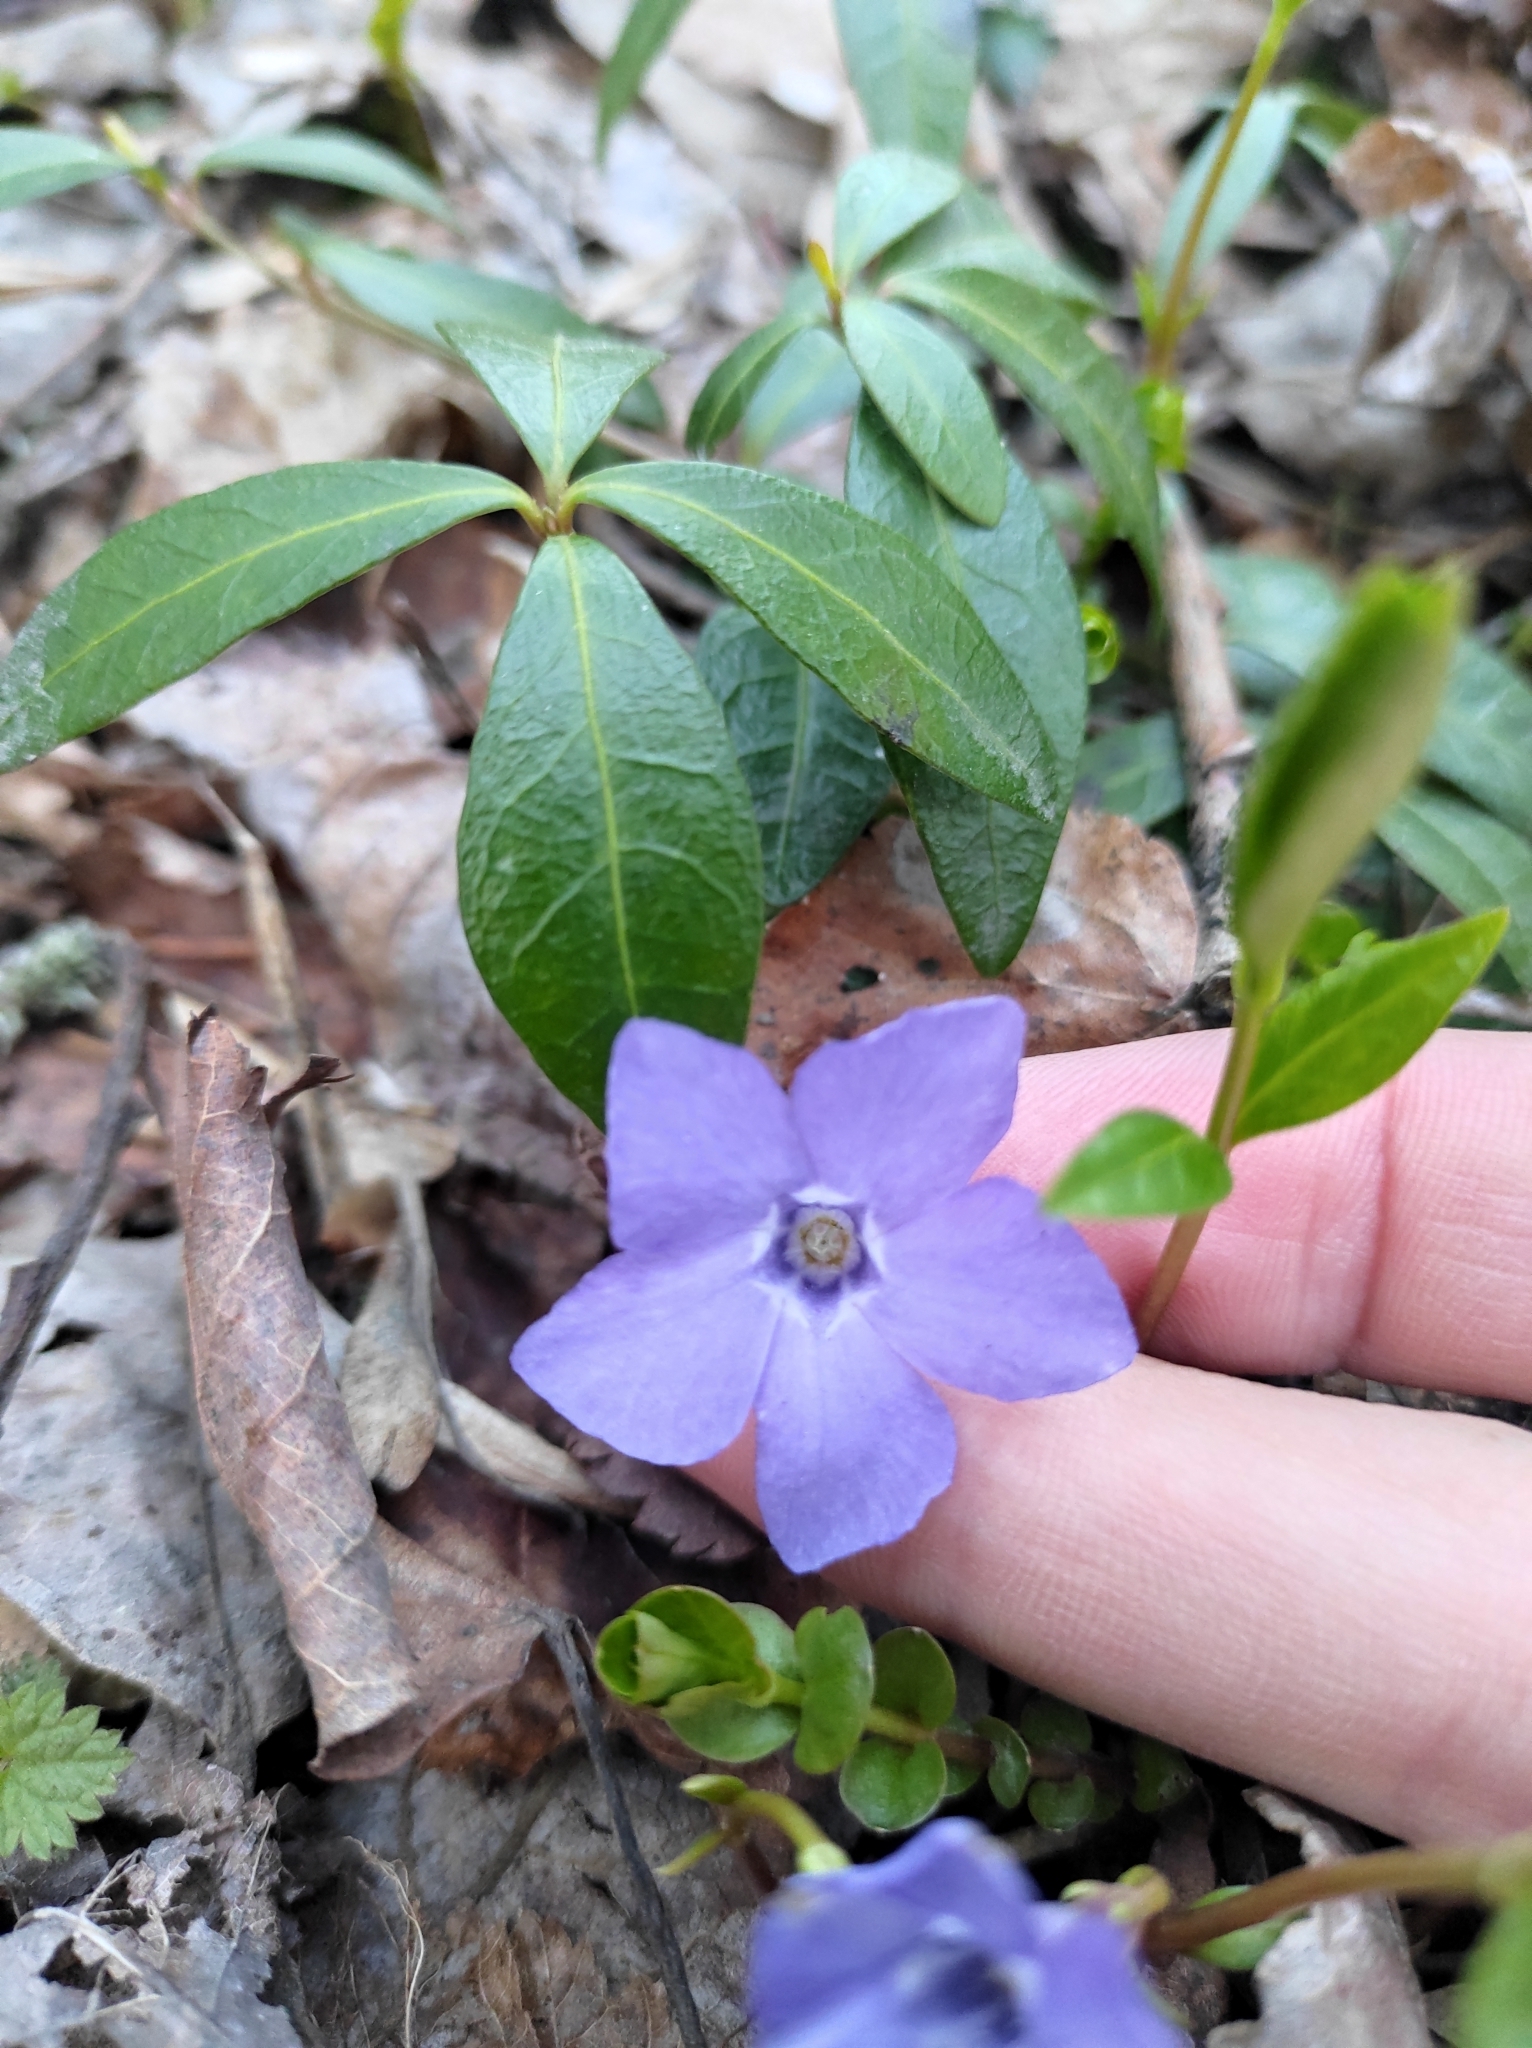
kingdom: Plantae
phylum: Tracheophyta
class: Magnoliopsida
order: Gentianales
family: Apocynaceae
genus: Vinca
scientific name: Vinca minor
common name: Lesser periwinkle
